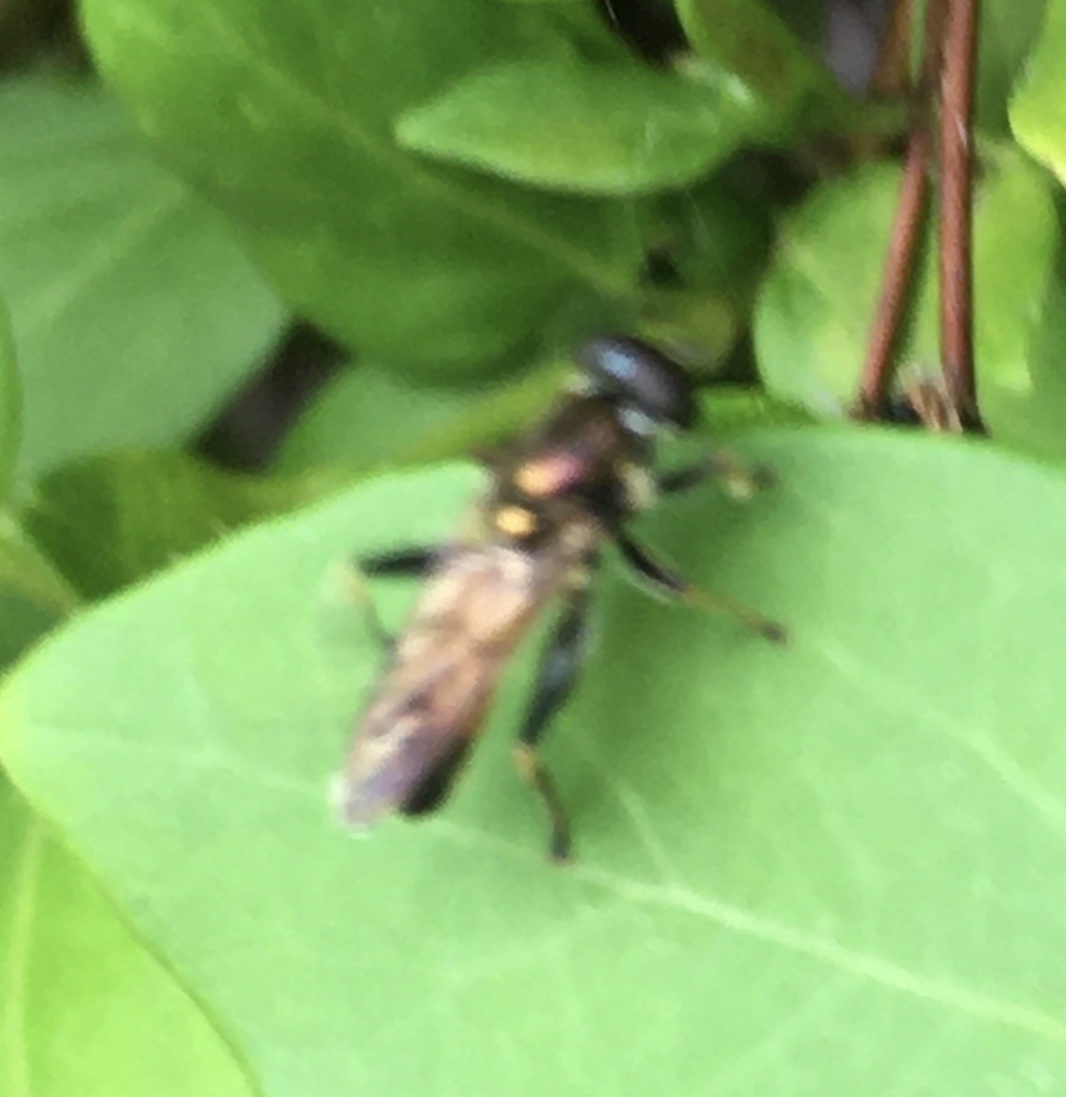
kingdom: Animalia
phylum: Arthropoda
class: Insecta
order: Diptera
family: Syrphidae
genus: Xylota
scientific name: Xylota segnis
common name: Brown-toed forest fly
